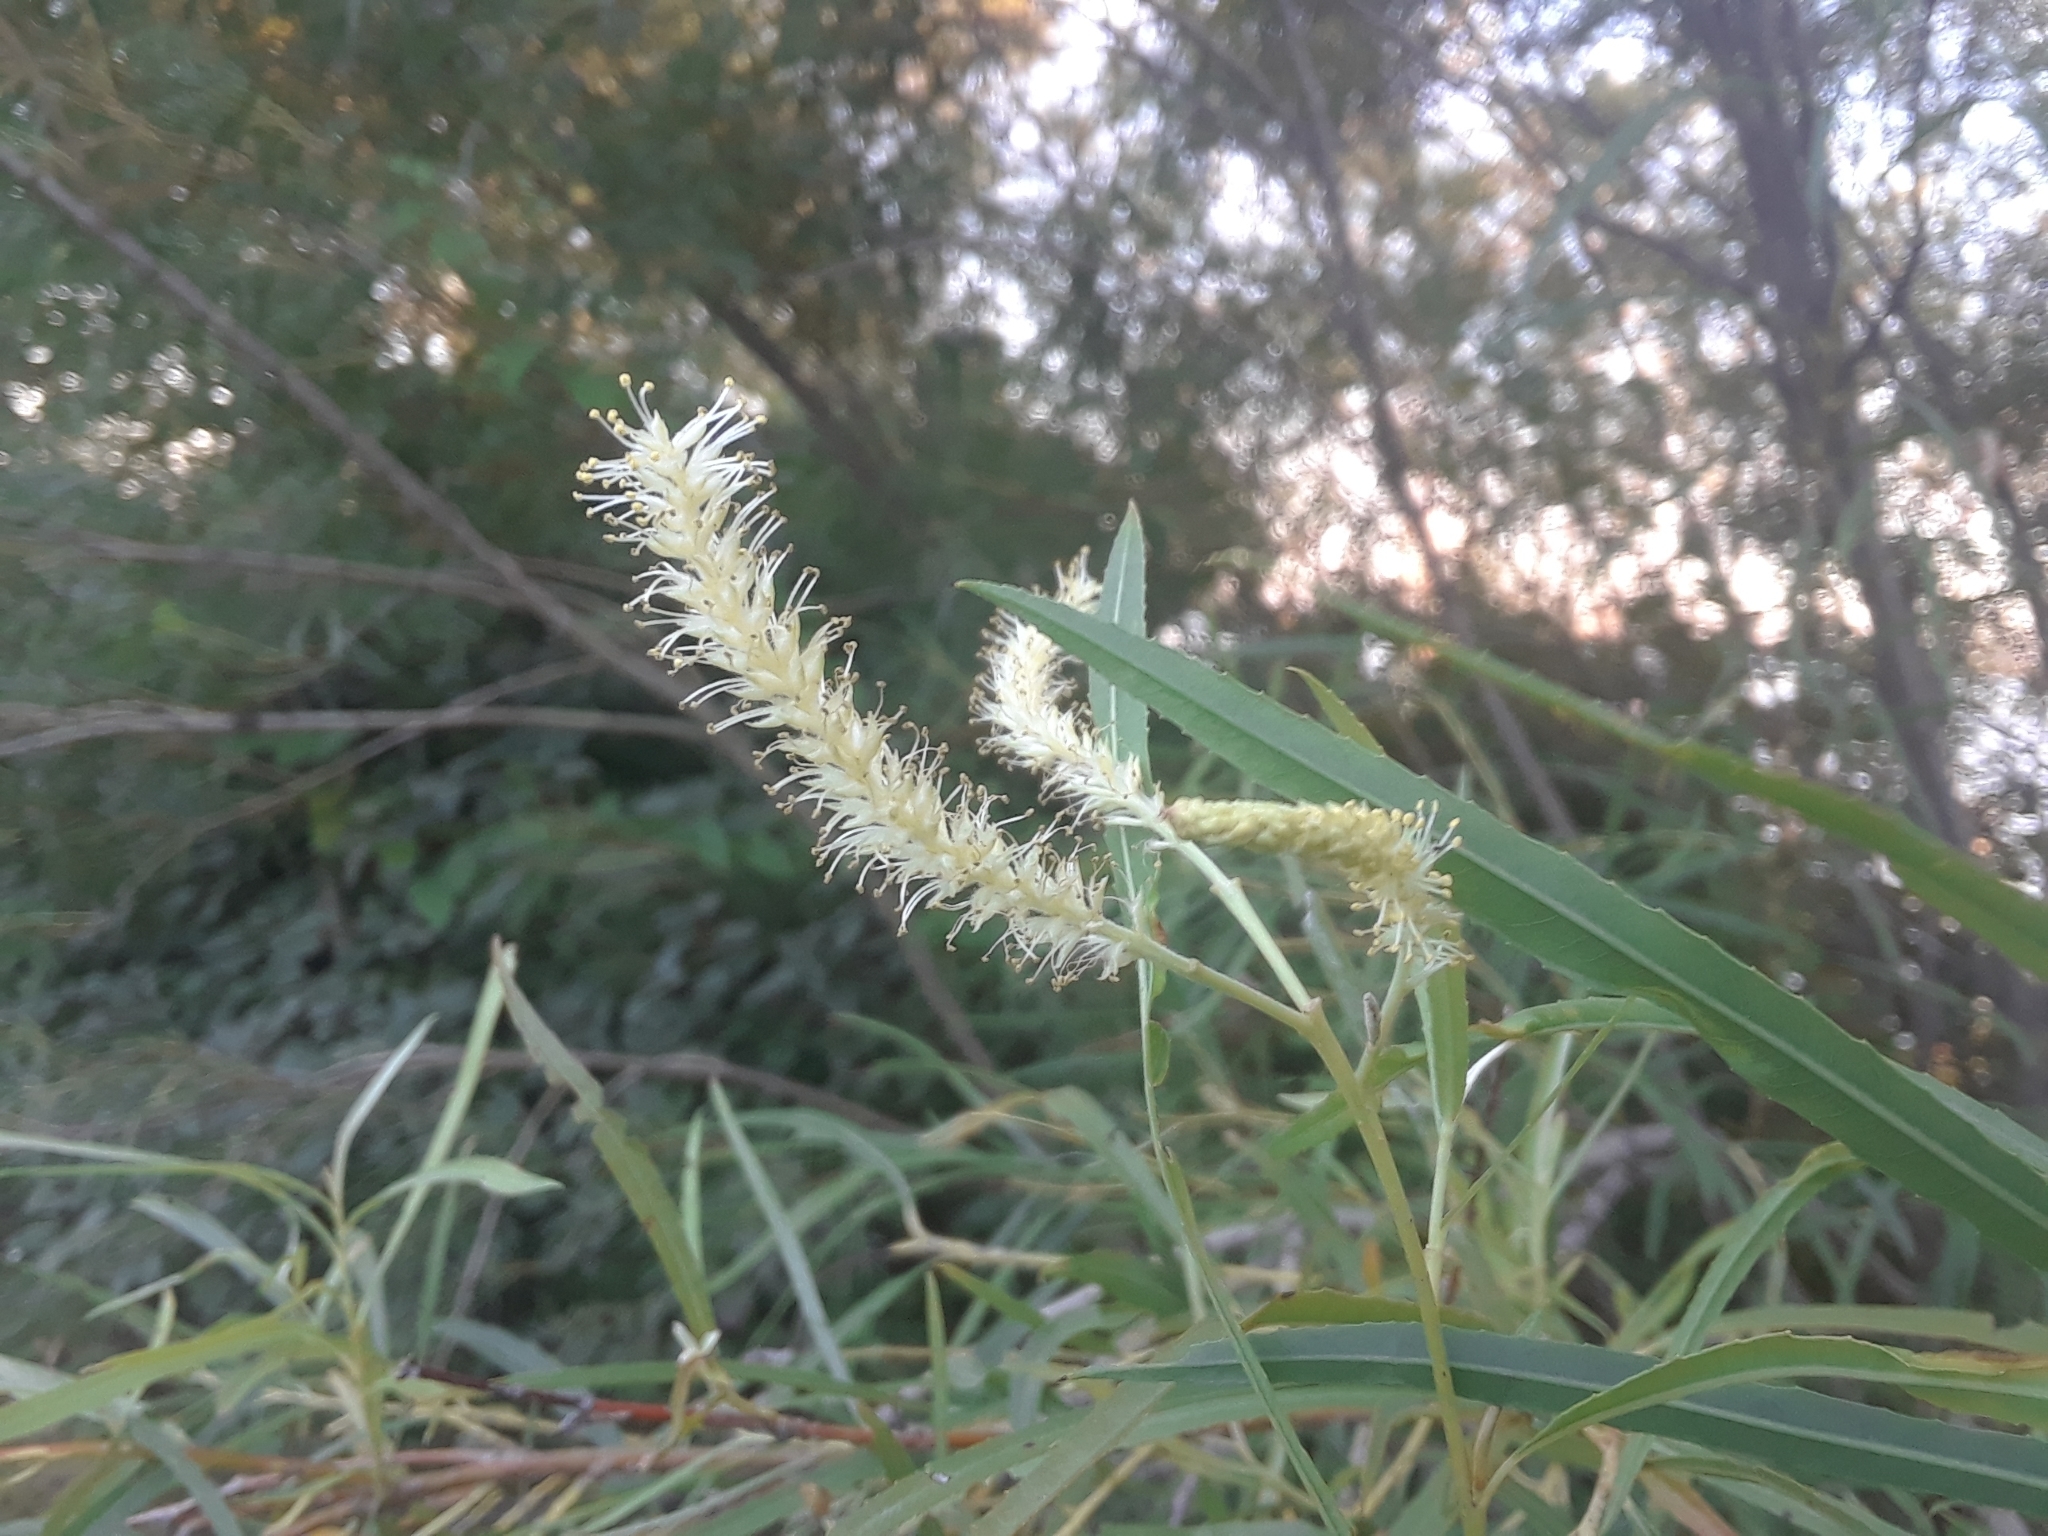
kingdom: Plantae
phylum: Tracheophyta
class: Magnoliopsida
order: Malpighiales
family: Salicaceae
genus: Salix
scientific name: Salix interior
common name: Sandbar willow
